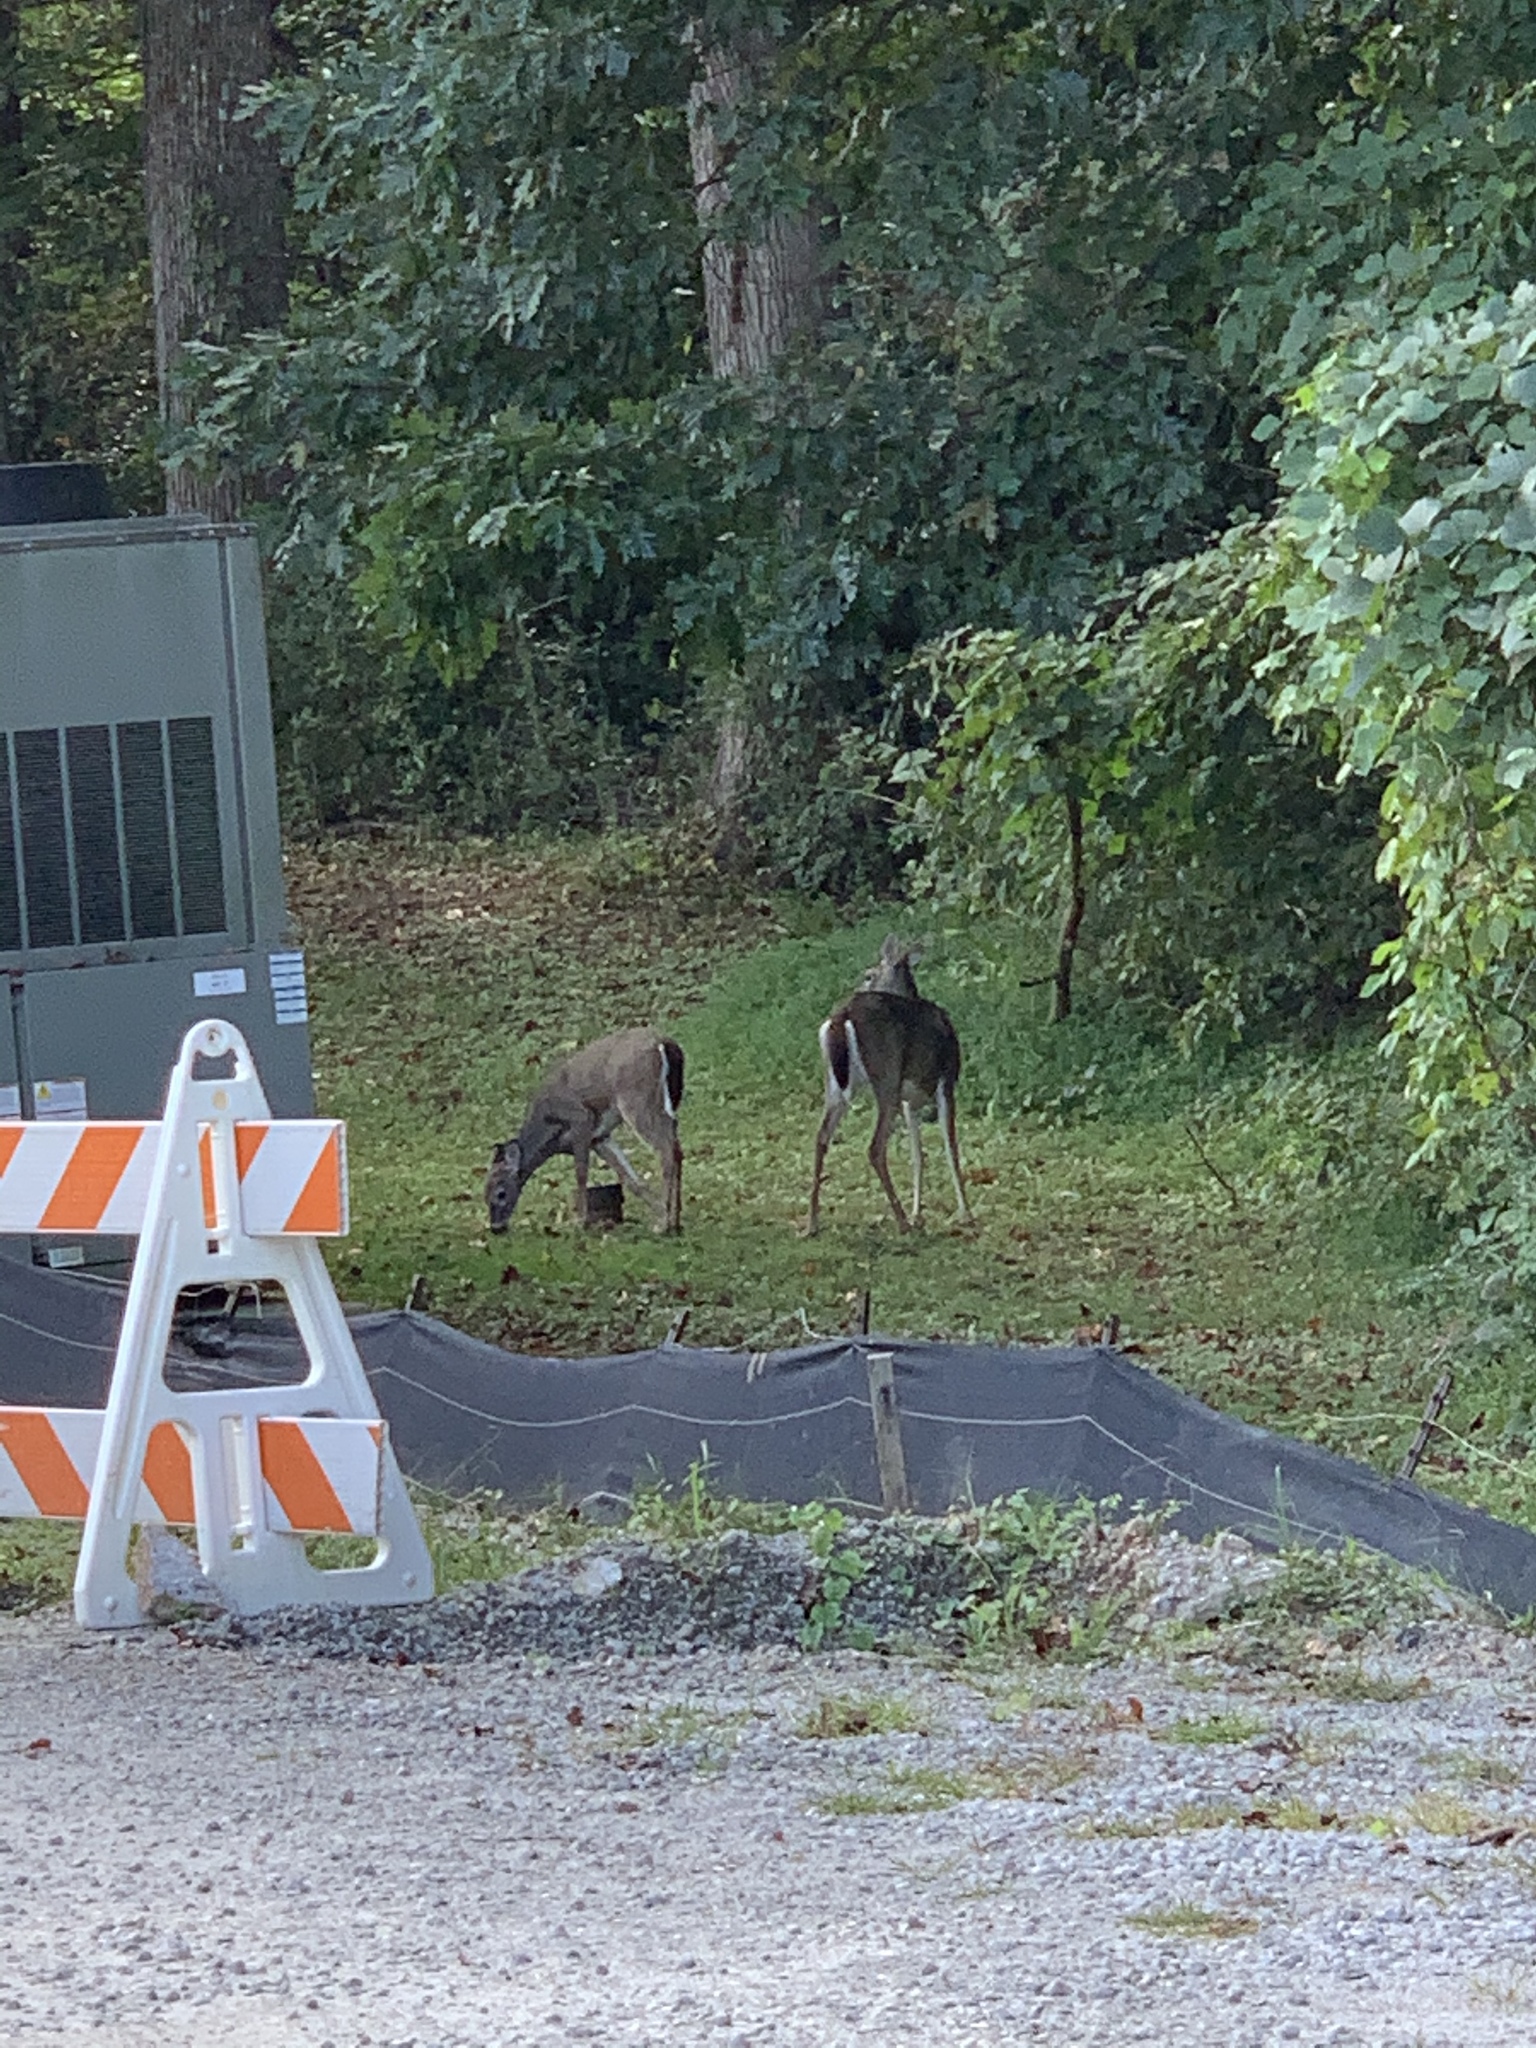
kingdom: Animalia
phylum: Chordata
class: Mammalia
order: Artiodactyla
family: Cervidae
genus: Odocoileus
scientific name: Odocoileus virginianus
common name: White-tailed deer
